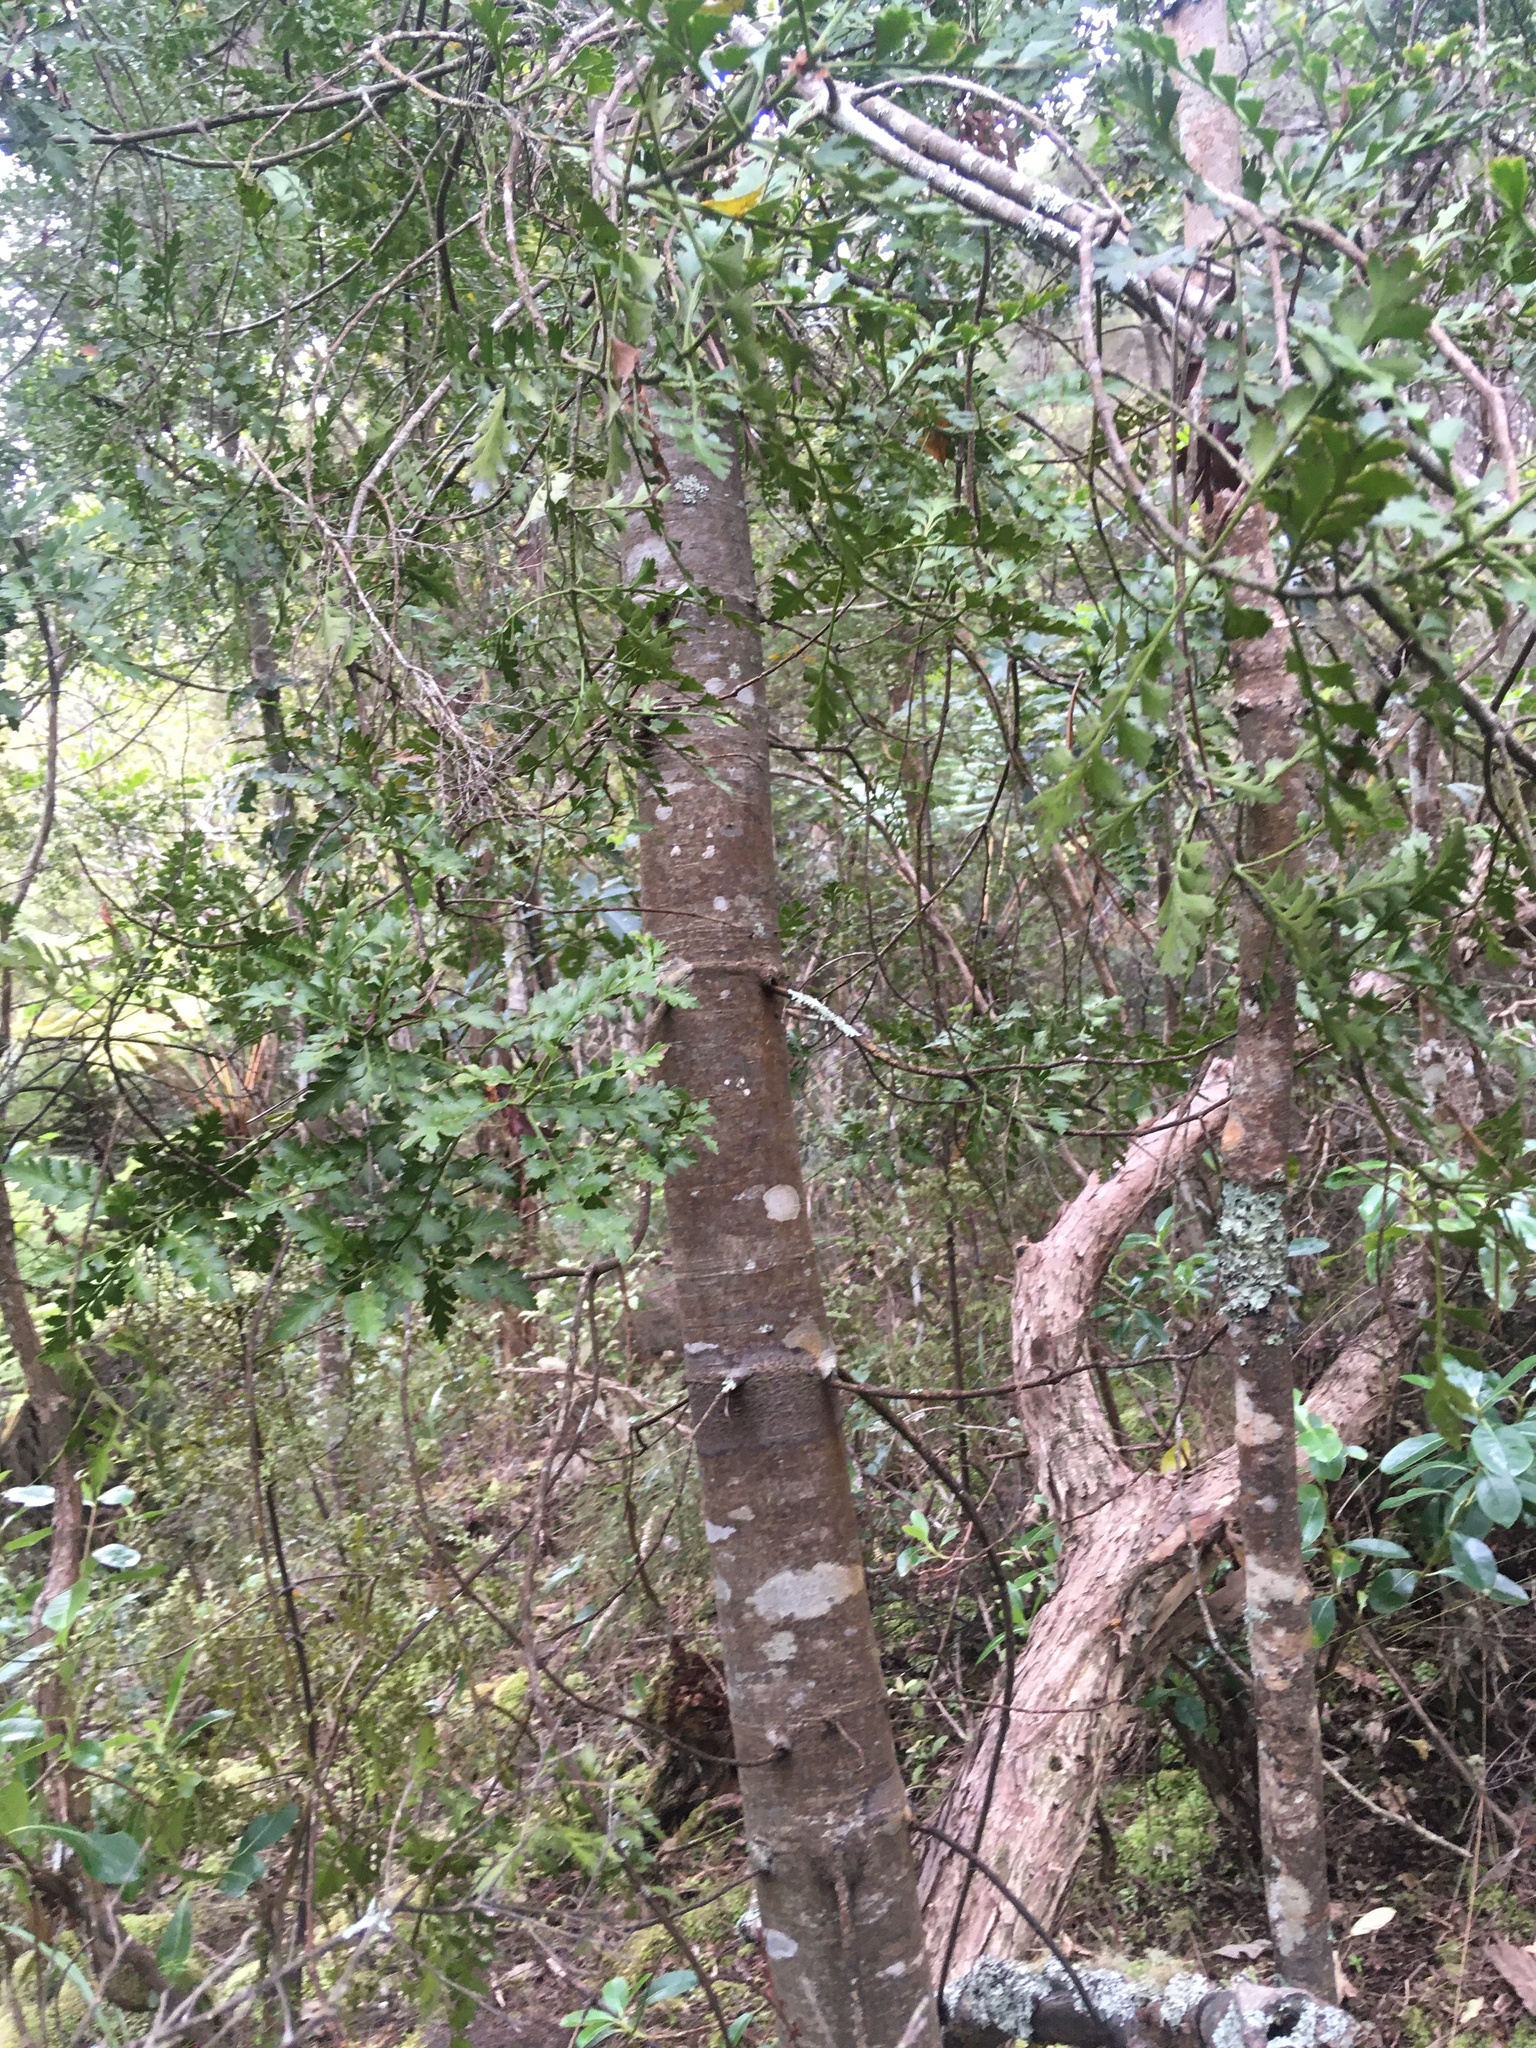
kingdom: Plantae
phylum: Tracheophyta
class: Pinopsida
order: Pinales
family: Phyllocladaceae
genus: Phyllocladus
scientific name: Phyllocladus trichomanoides
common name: Celery pine
